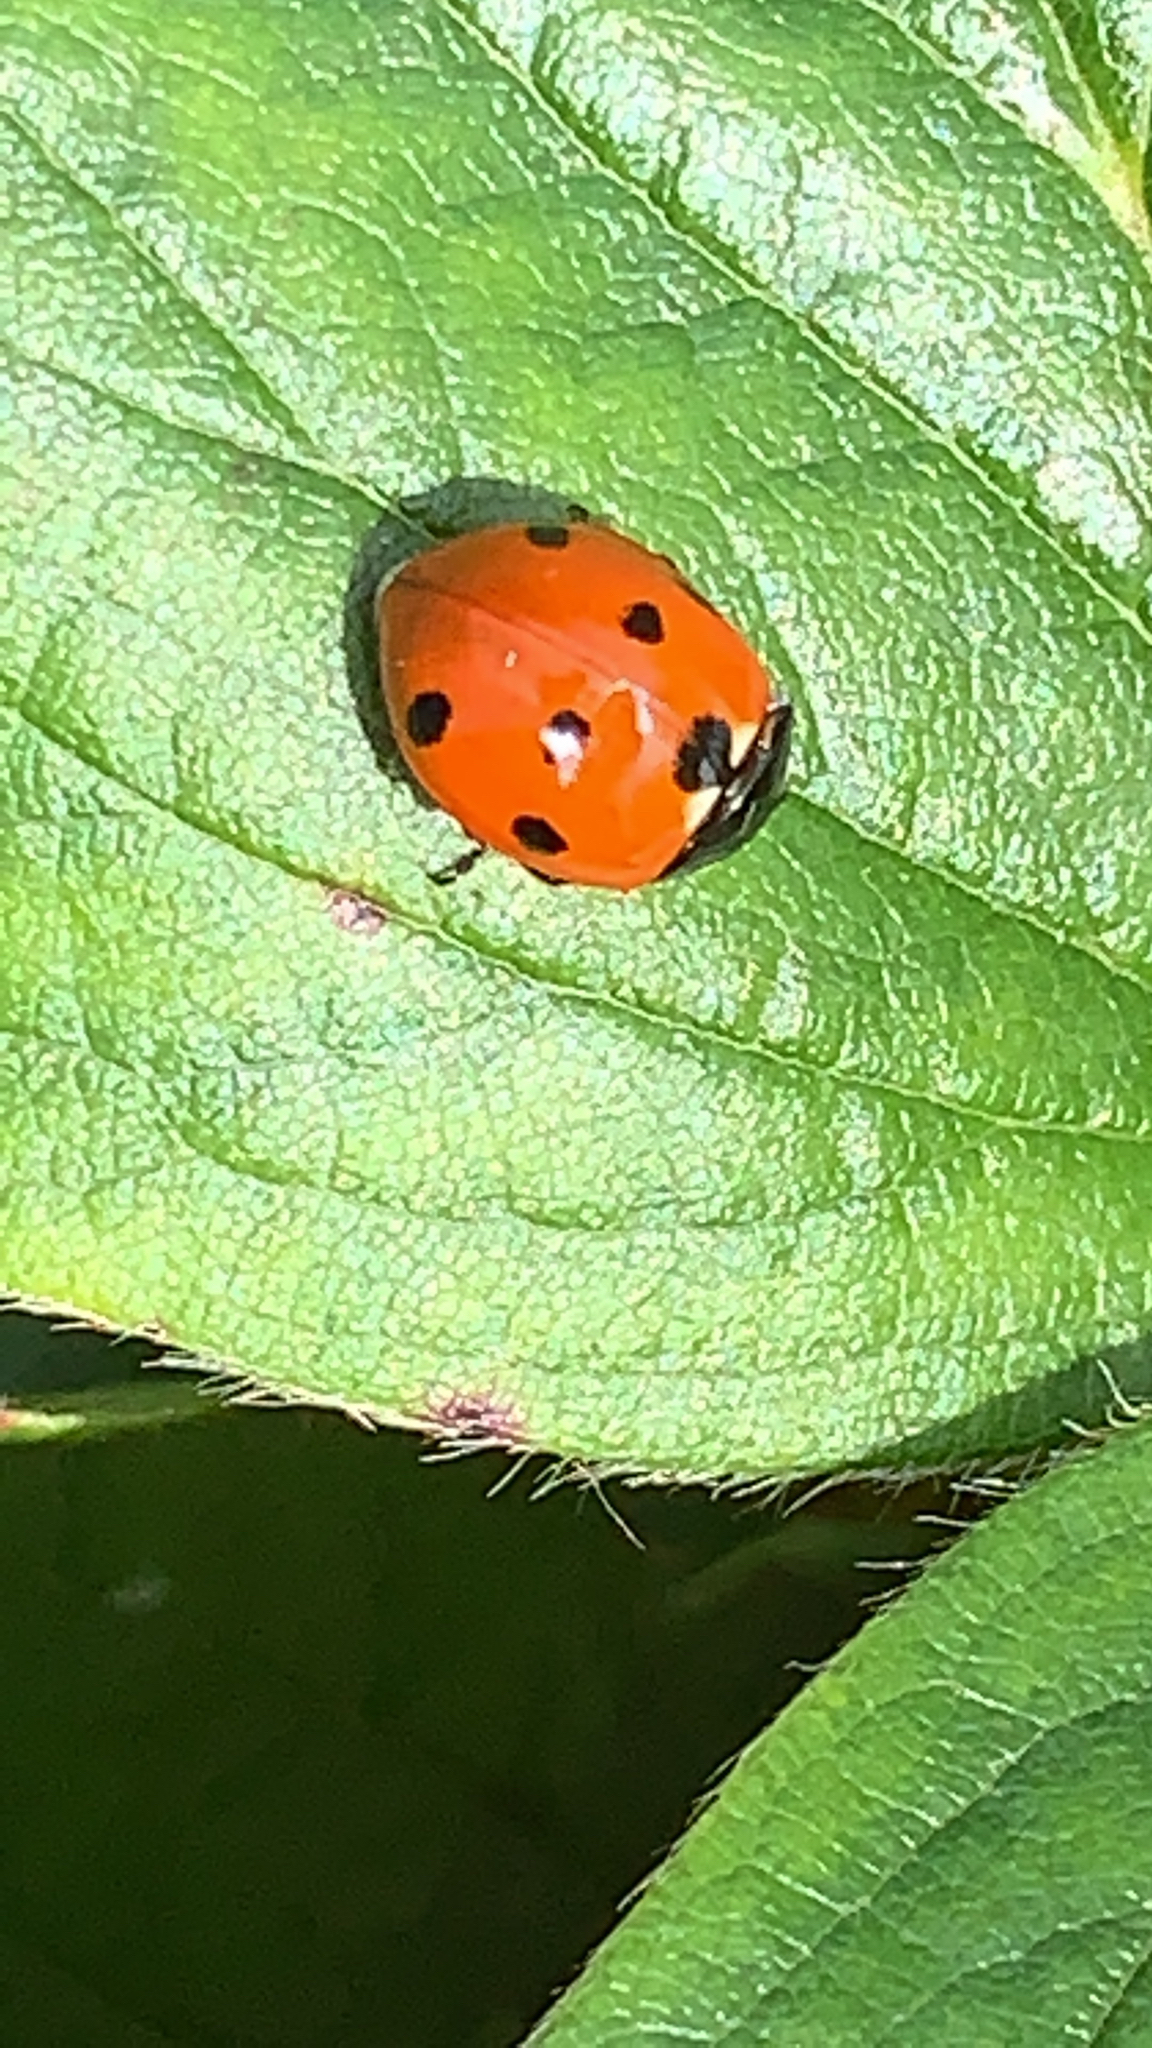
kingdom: Animalia
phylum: Arthropoda
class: Insecta
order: Coleoptera
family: Coccinellidae
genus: Coccinella
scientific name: Coccinella septempunctata
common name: Sevenspotted lady beetle
